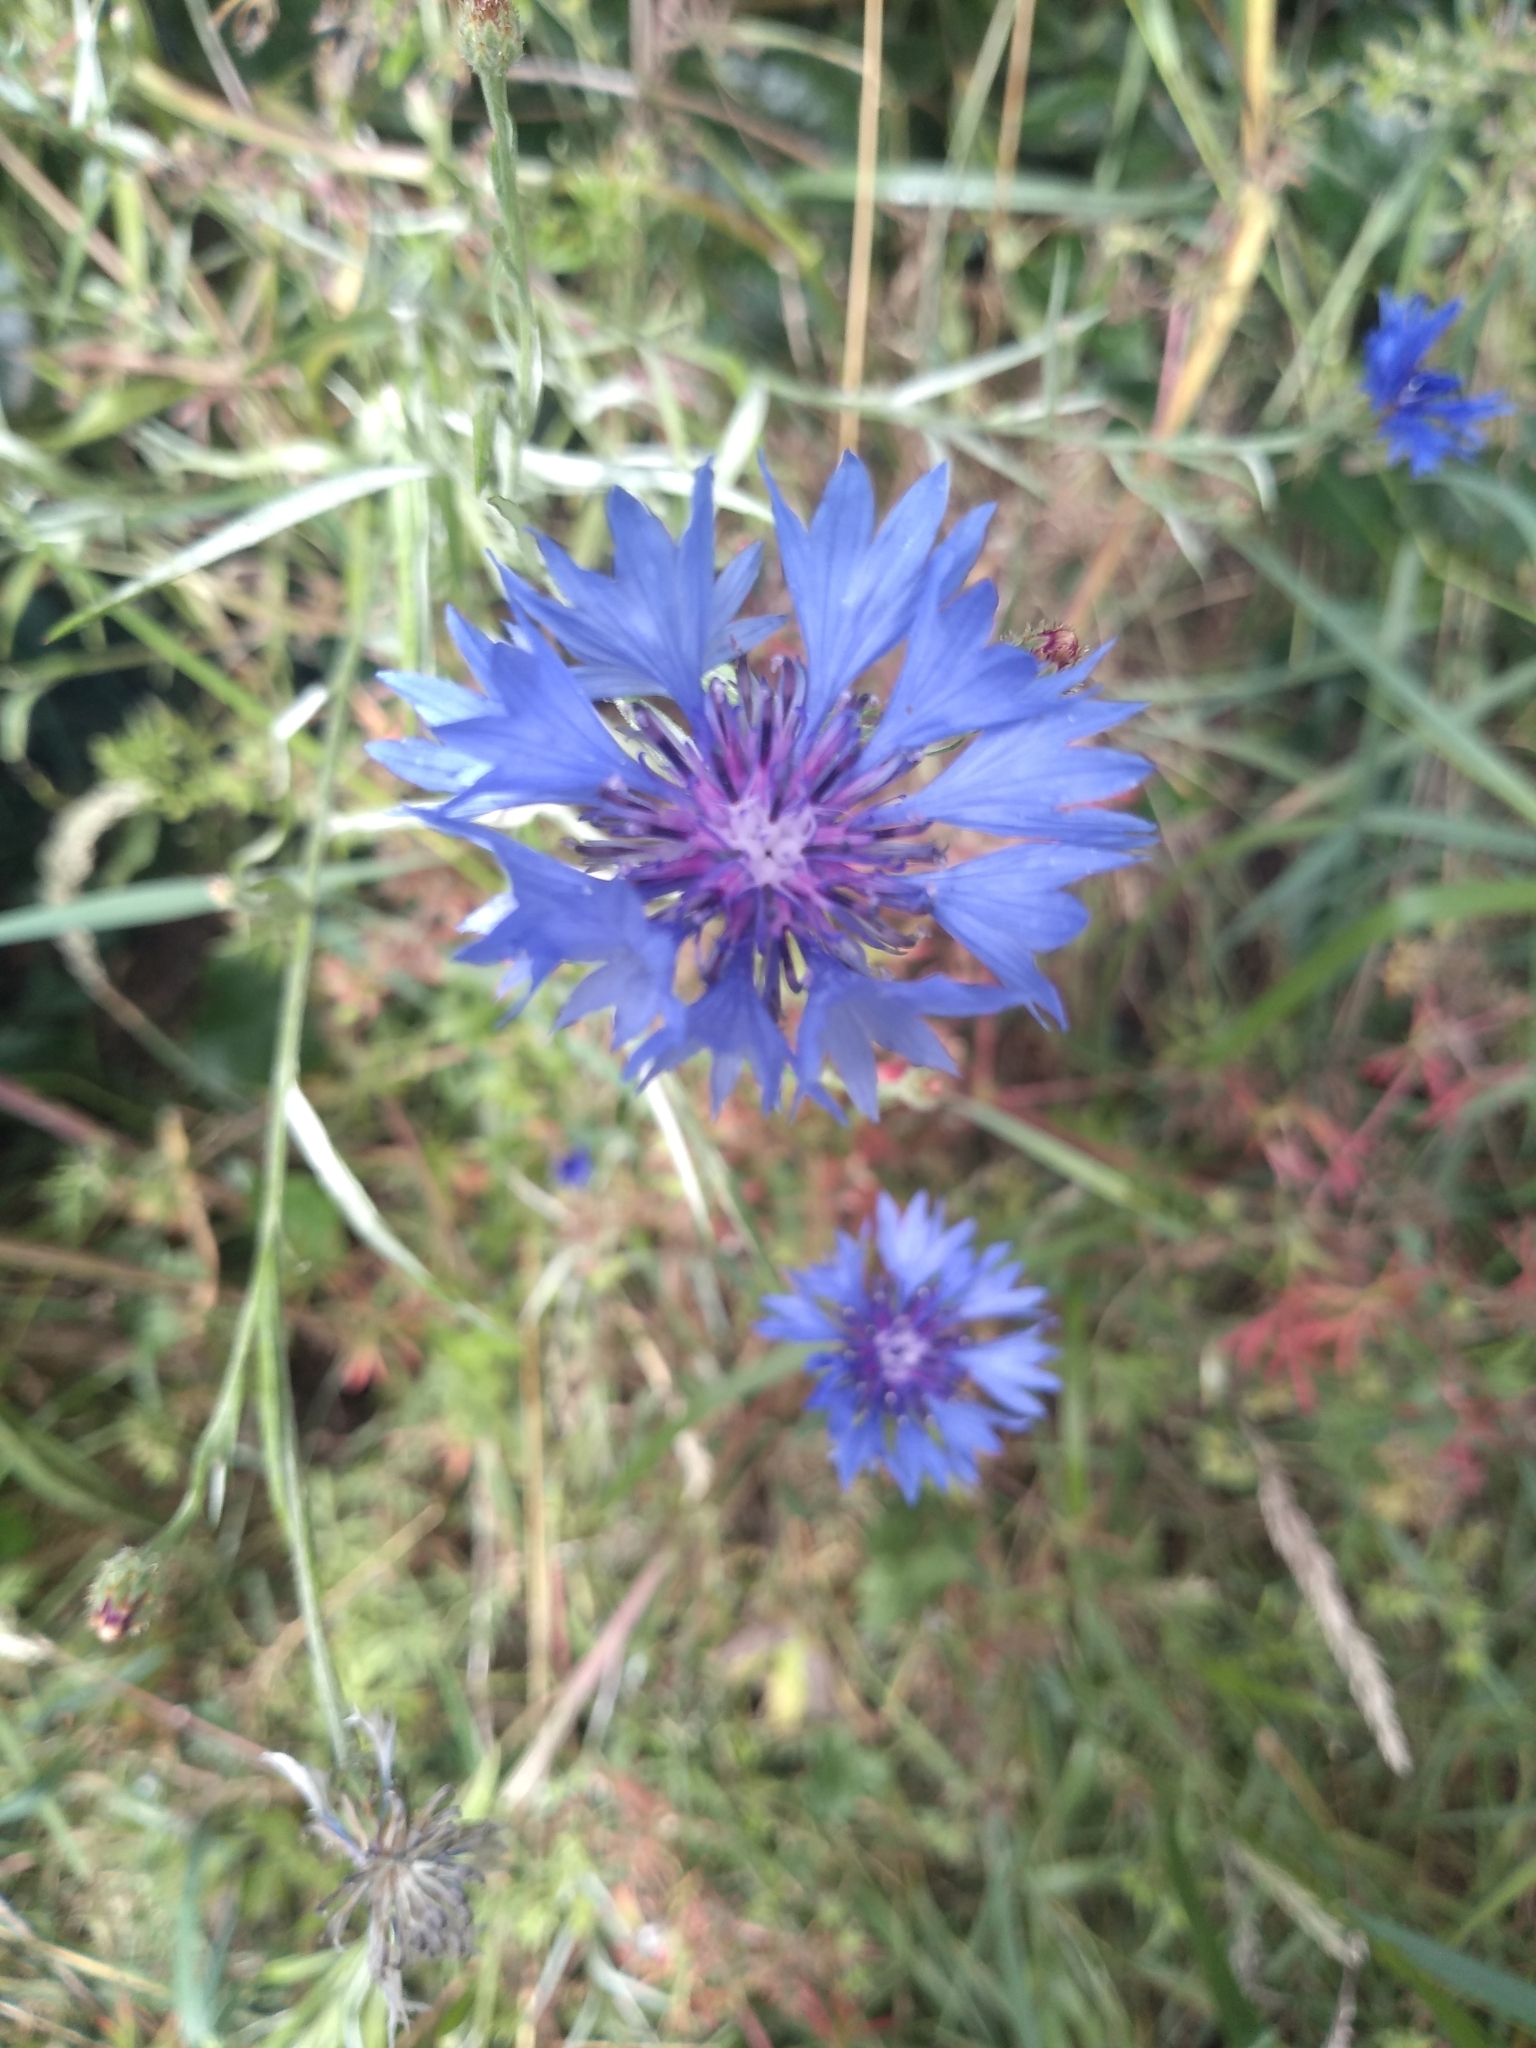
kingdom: Plantae
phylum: Tracheophyta
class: Magnoliopsida
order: Asterales
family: Asteraceae
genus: Centaurea
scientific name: Centaurea cyanus
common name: Cornflower
